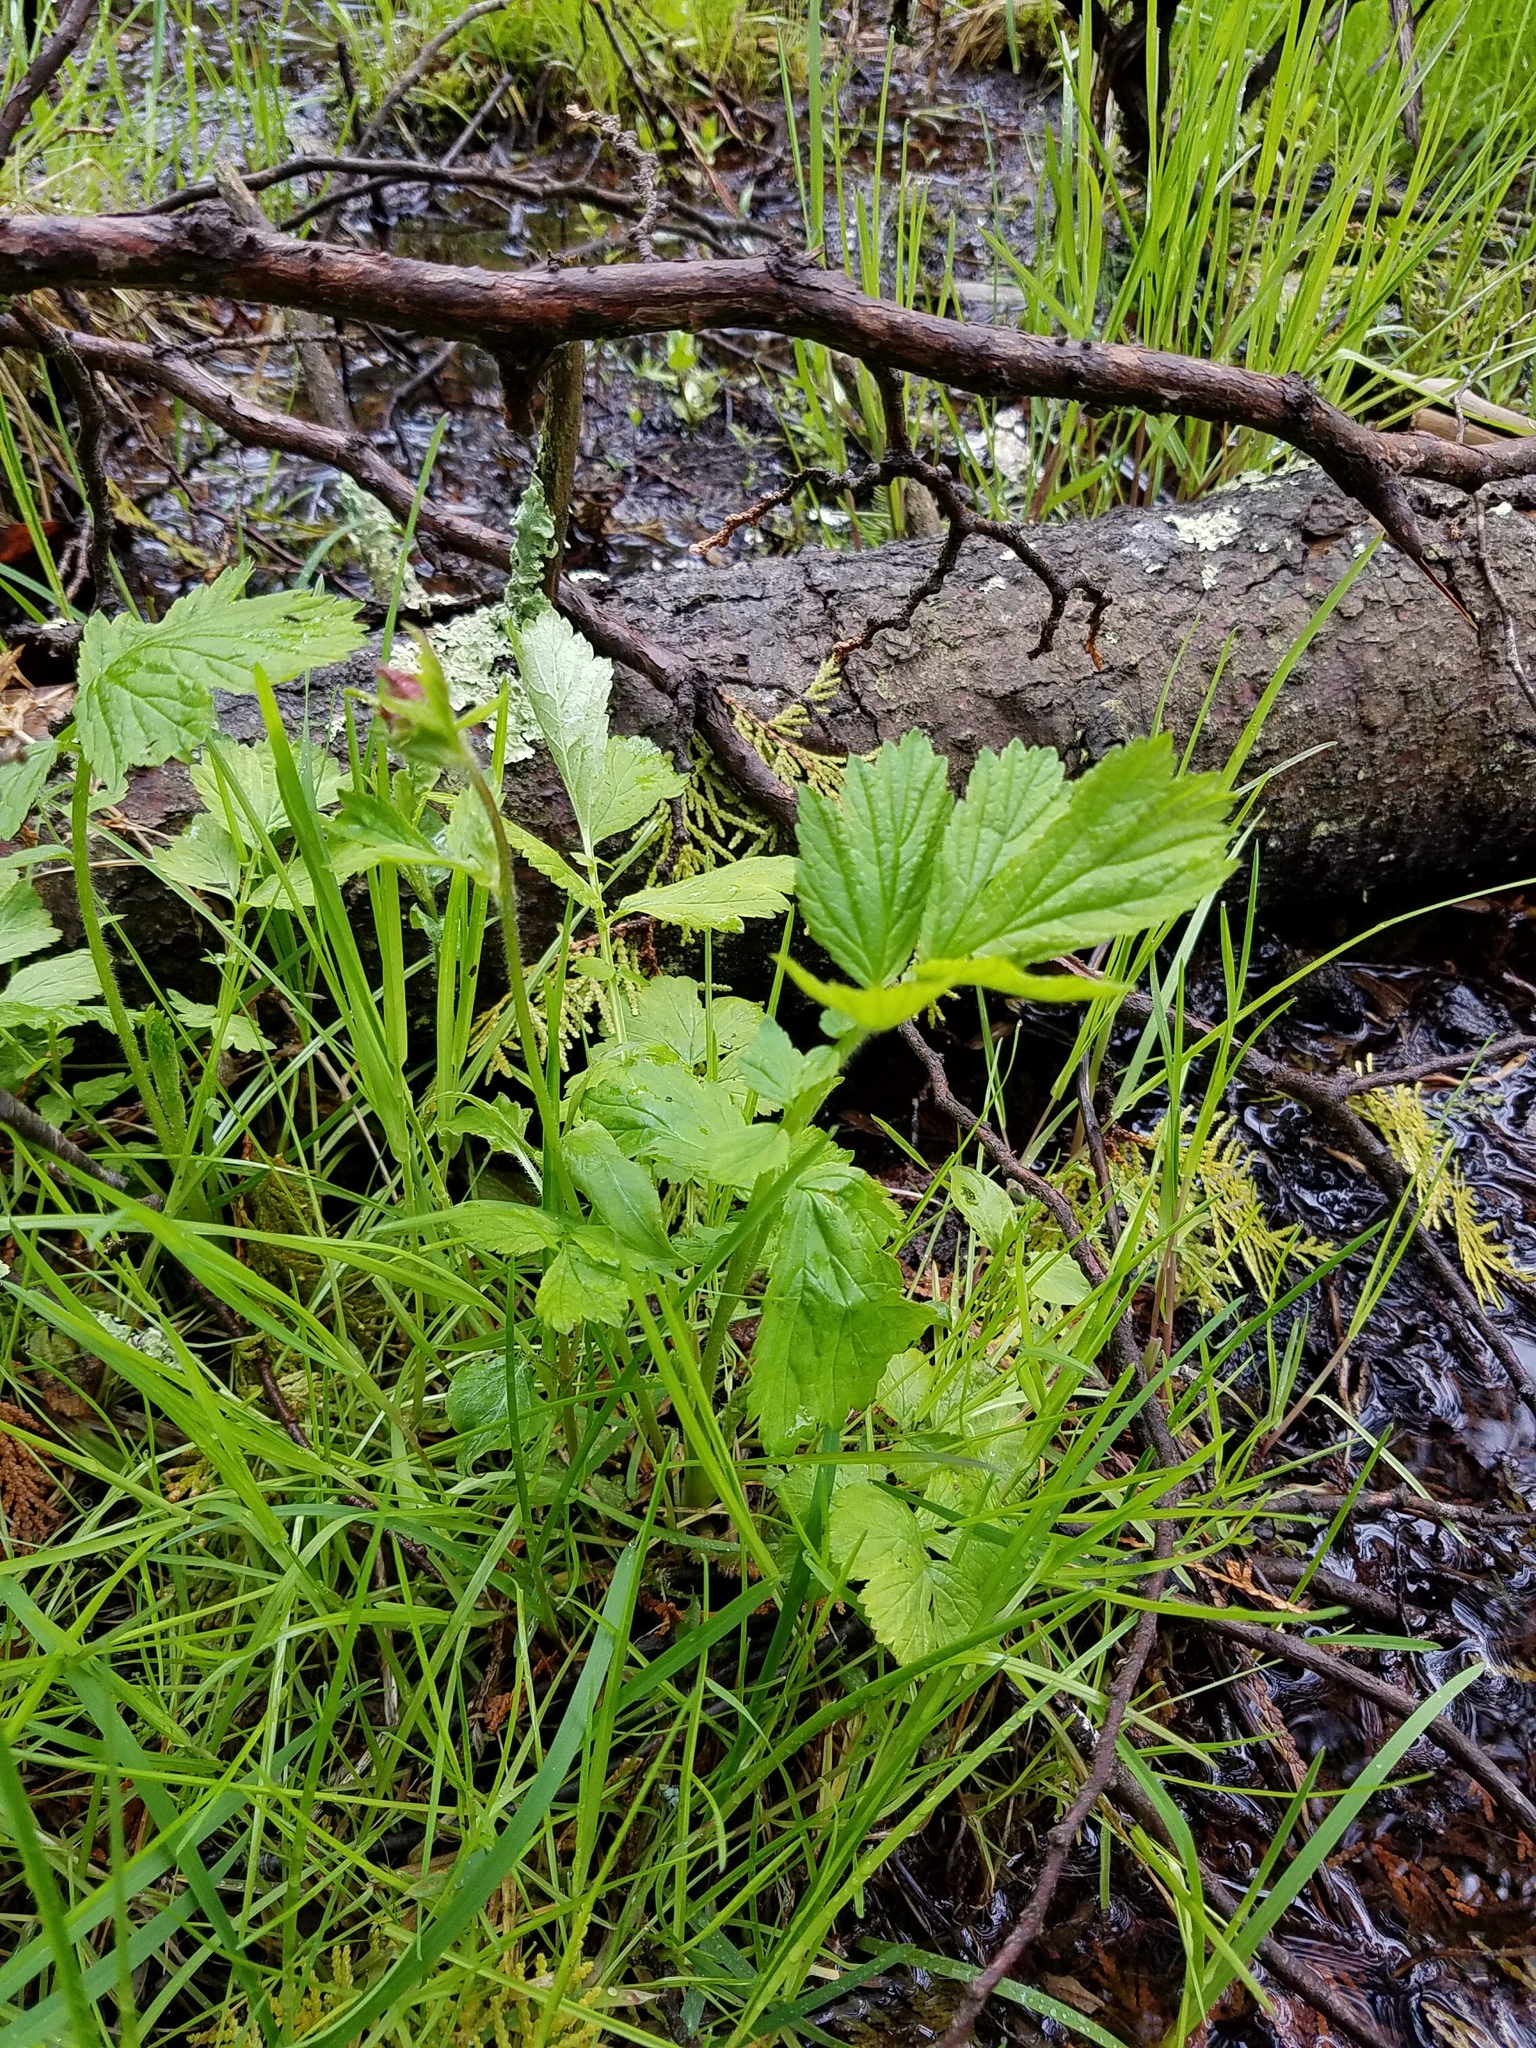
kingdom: Plantae
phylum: Tracheophyta
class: Magnoliopsida
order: Rosales
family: Rosaceae
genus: Geum
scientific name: Geum rivale
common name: Water avens
